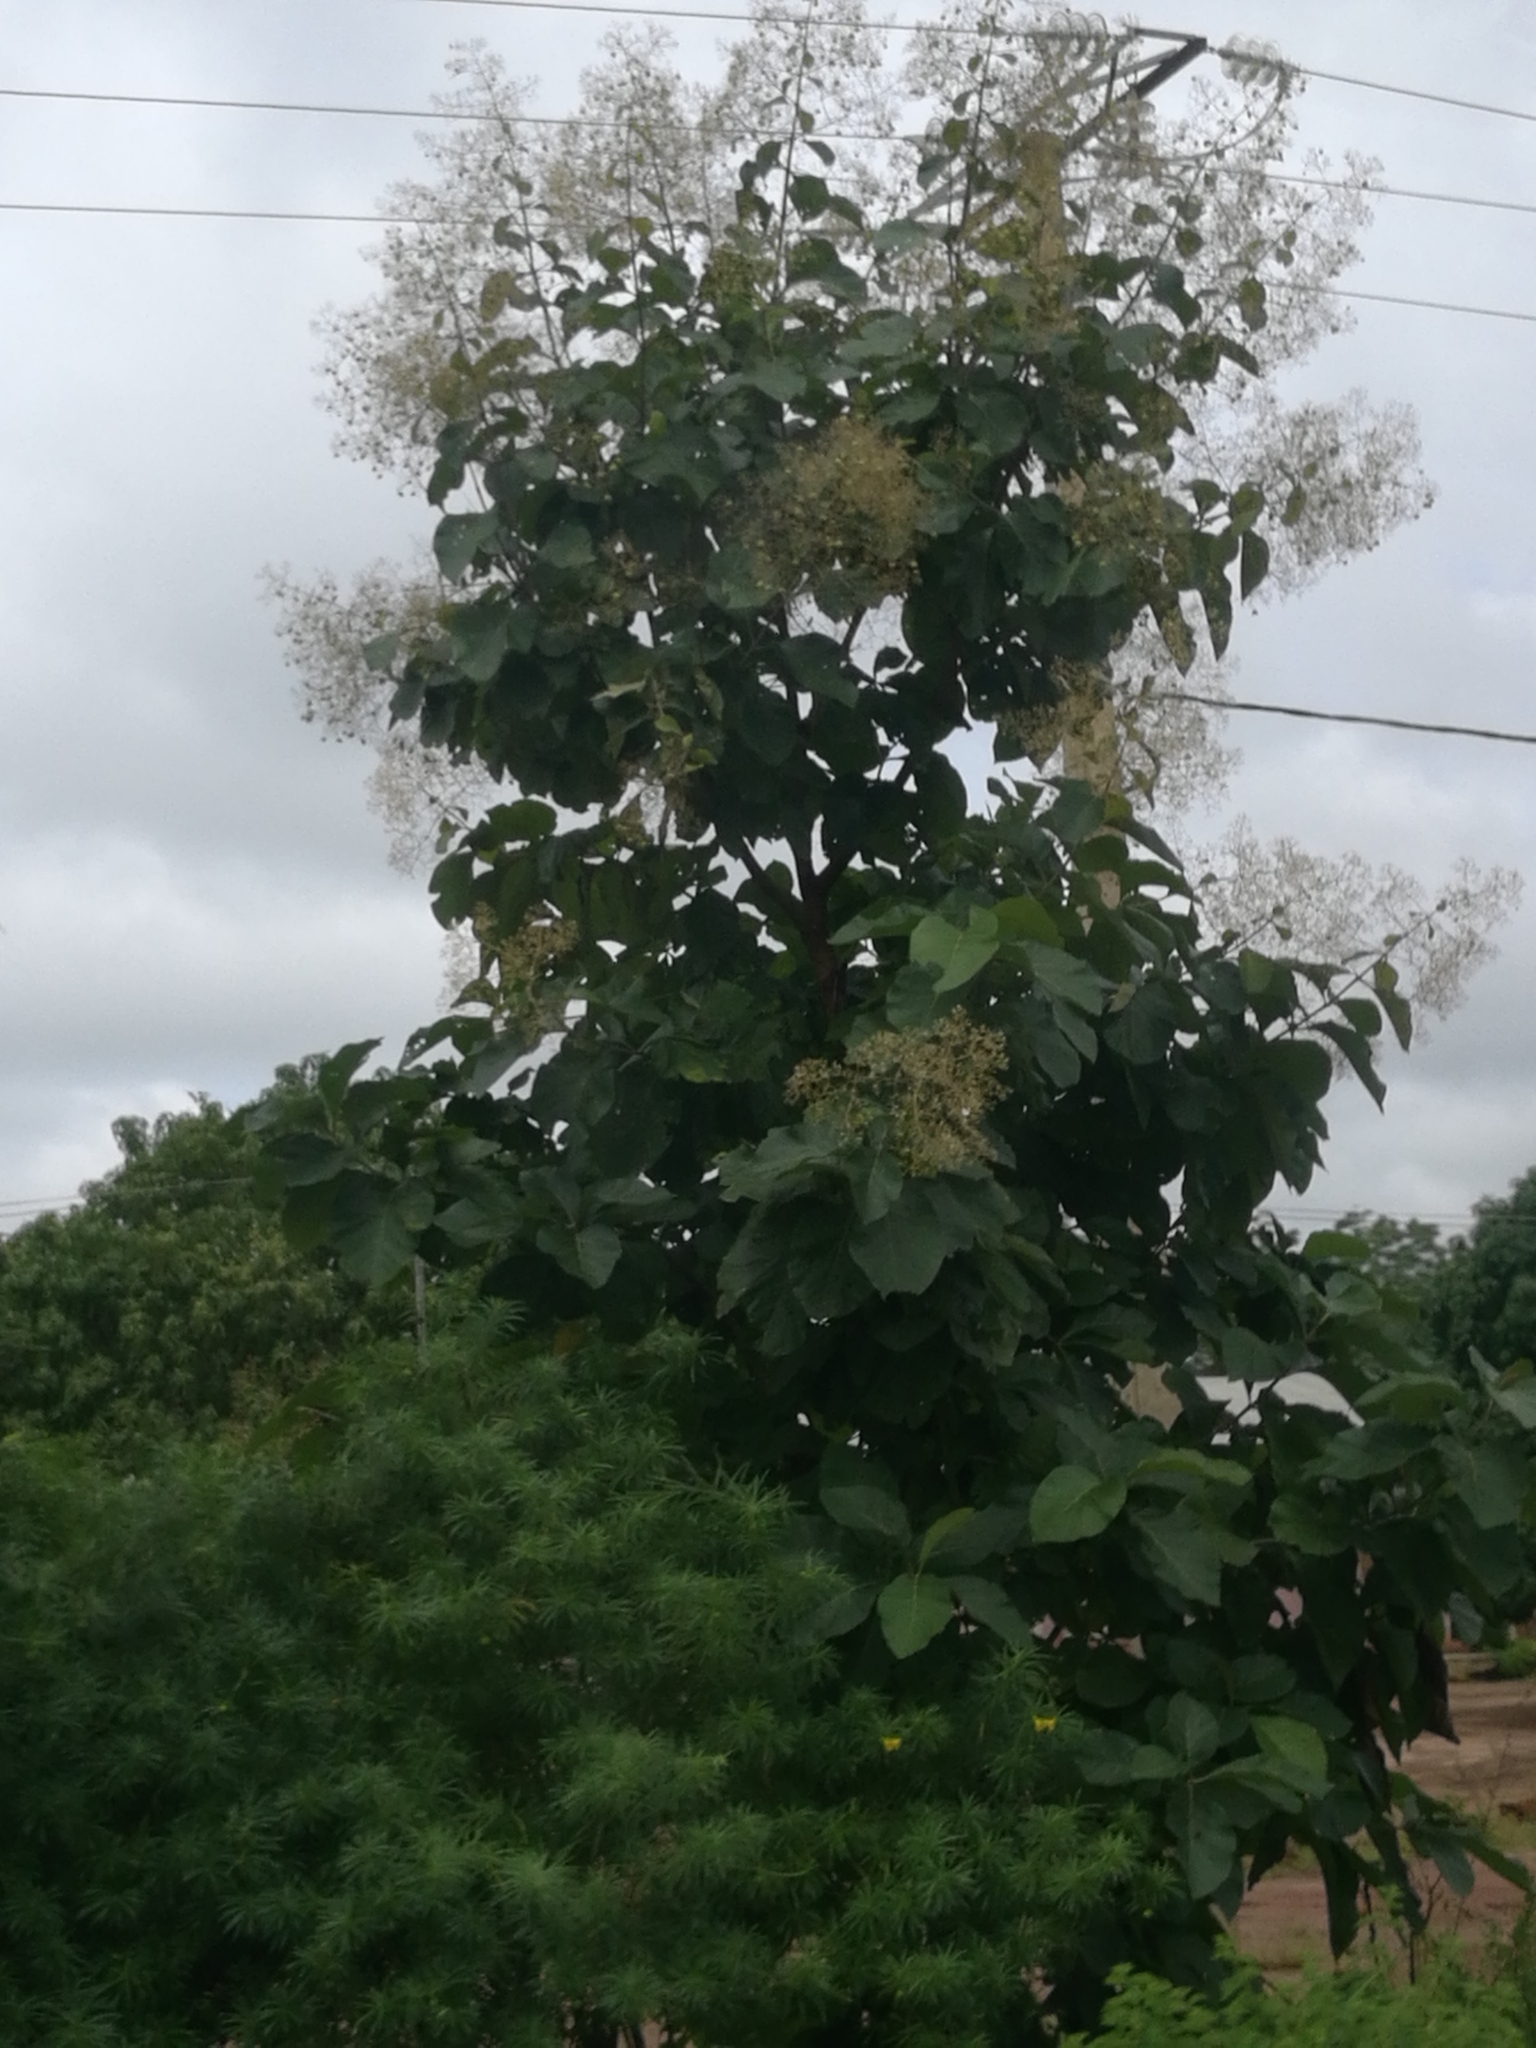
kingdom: Plantae
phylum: Tracheophyta
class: Magnoliopsida
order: Lamiales
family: Lamiaceae
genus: Tectona
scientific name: Tectona grandis
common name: Teak
